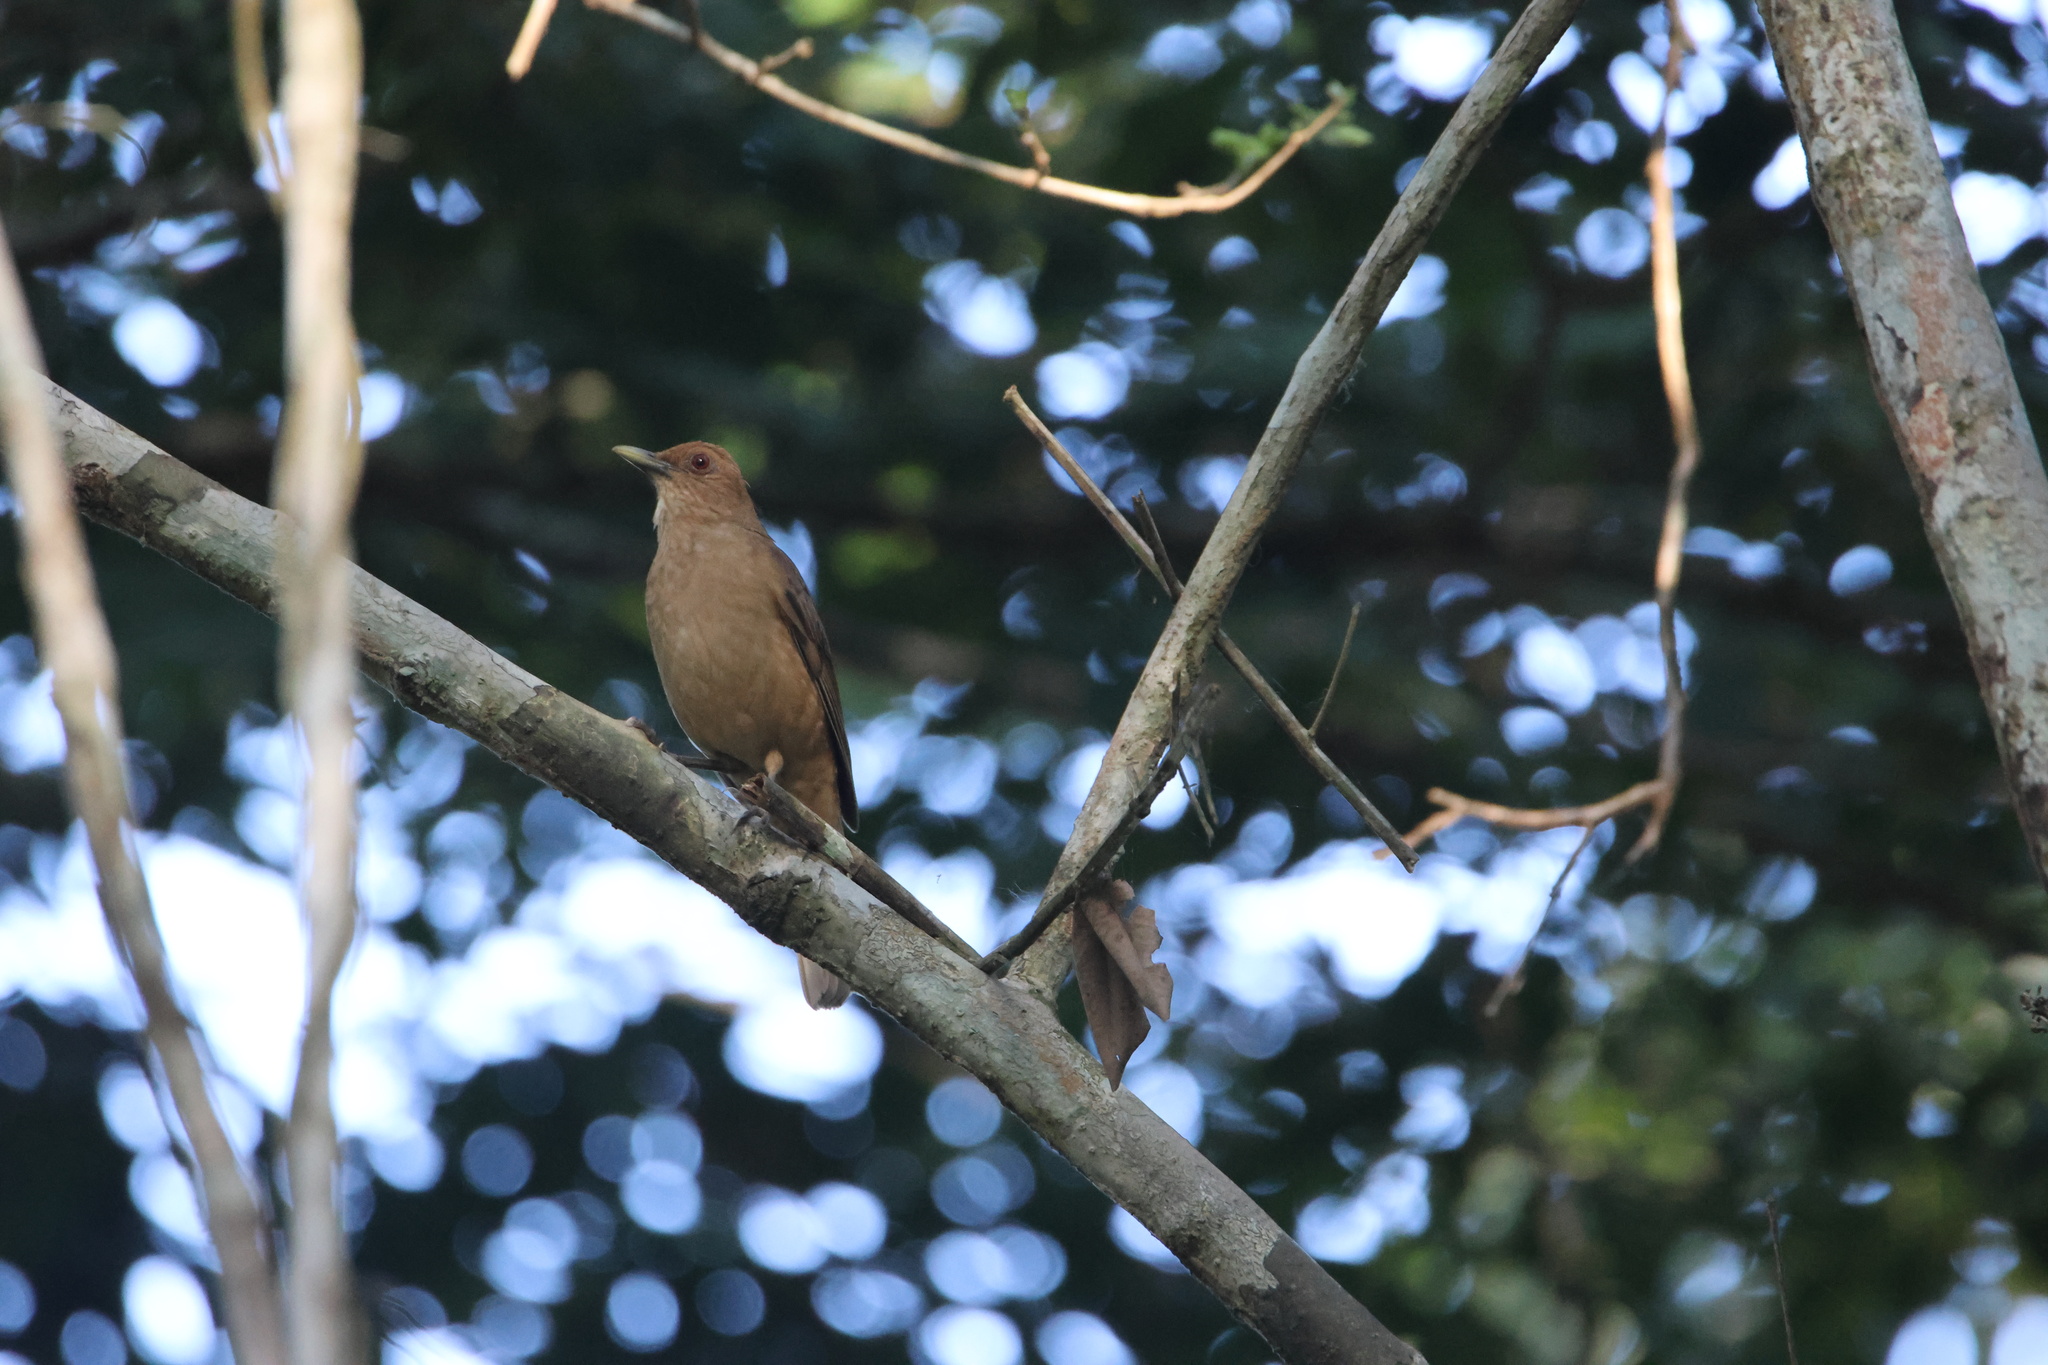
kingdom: Animalia
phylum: Chordata
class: Aves
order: Passeriformes
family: Turdidae
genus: Turdus
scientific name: Turdus grayi
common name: Clay-colored thrush
